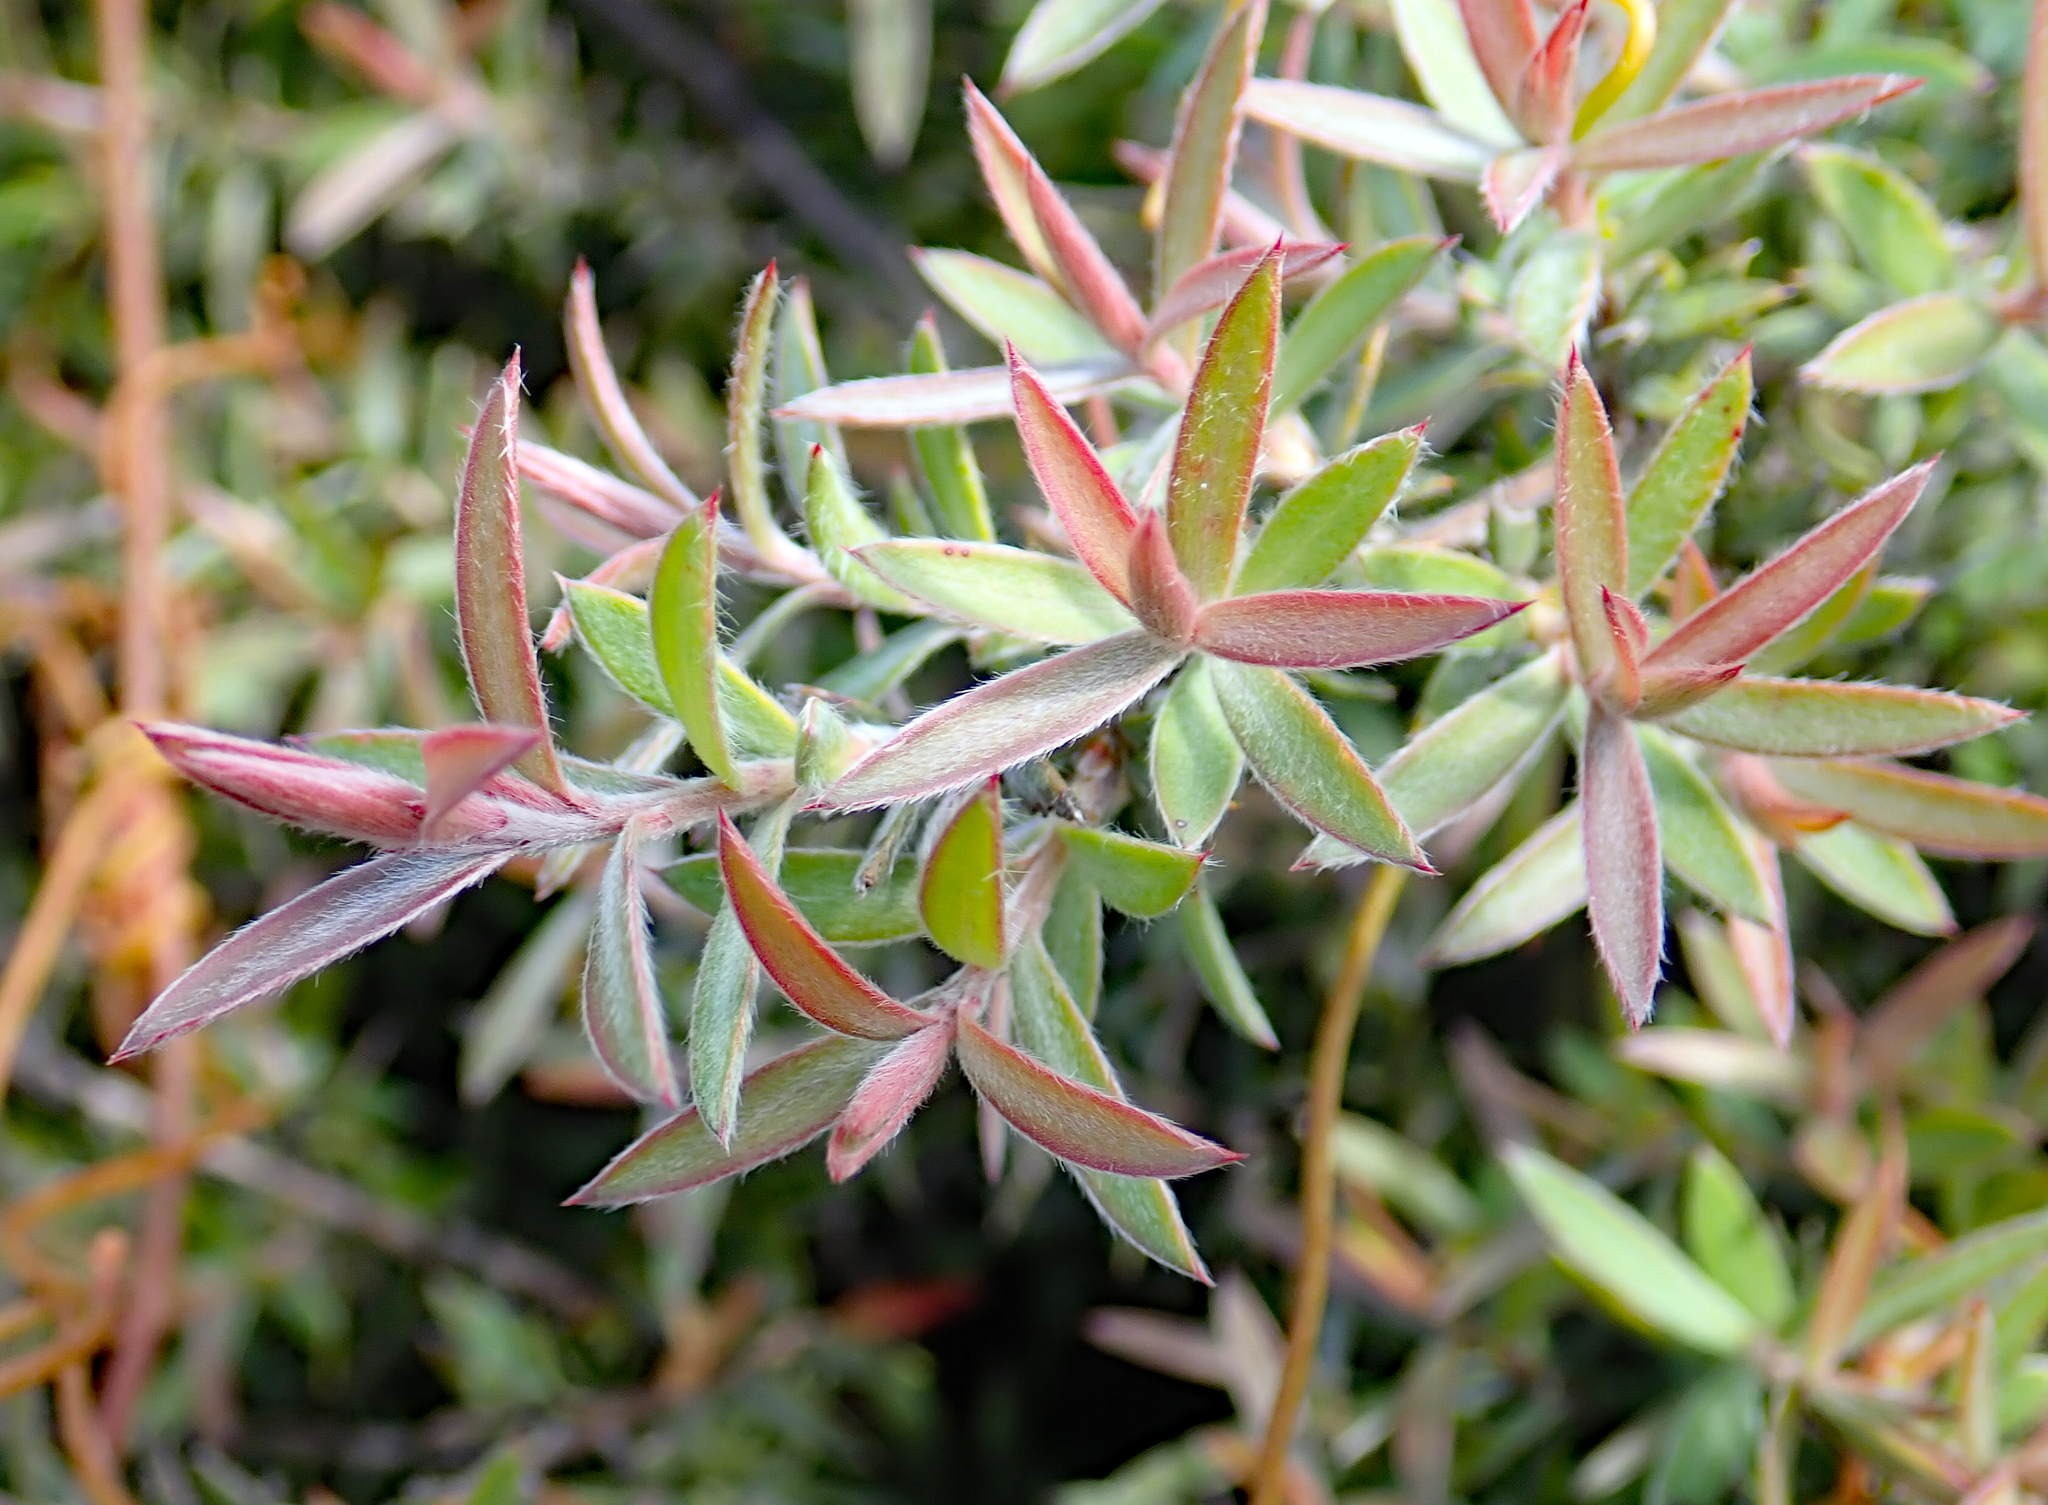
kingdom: Plantae
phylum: Tracheophyta
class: Magnoliopsida
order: Myrtales
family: Myrtaceae
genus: Leptospermum
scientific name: Leptospermum scoparium
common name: Broom tea-tree
